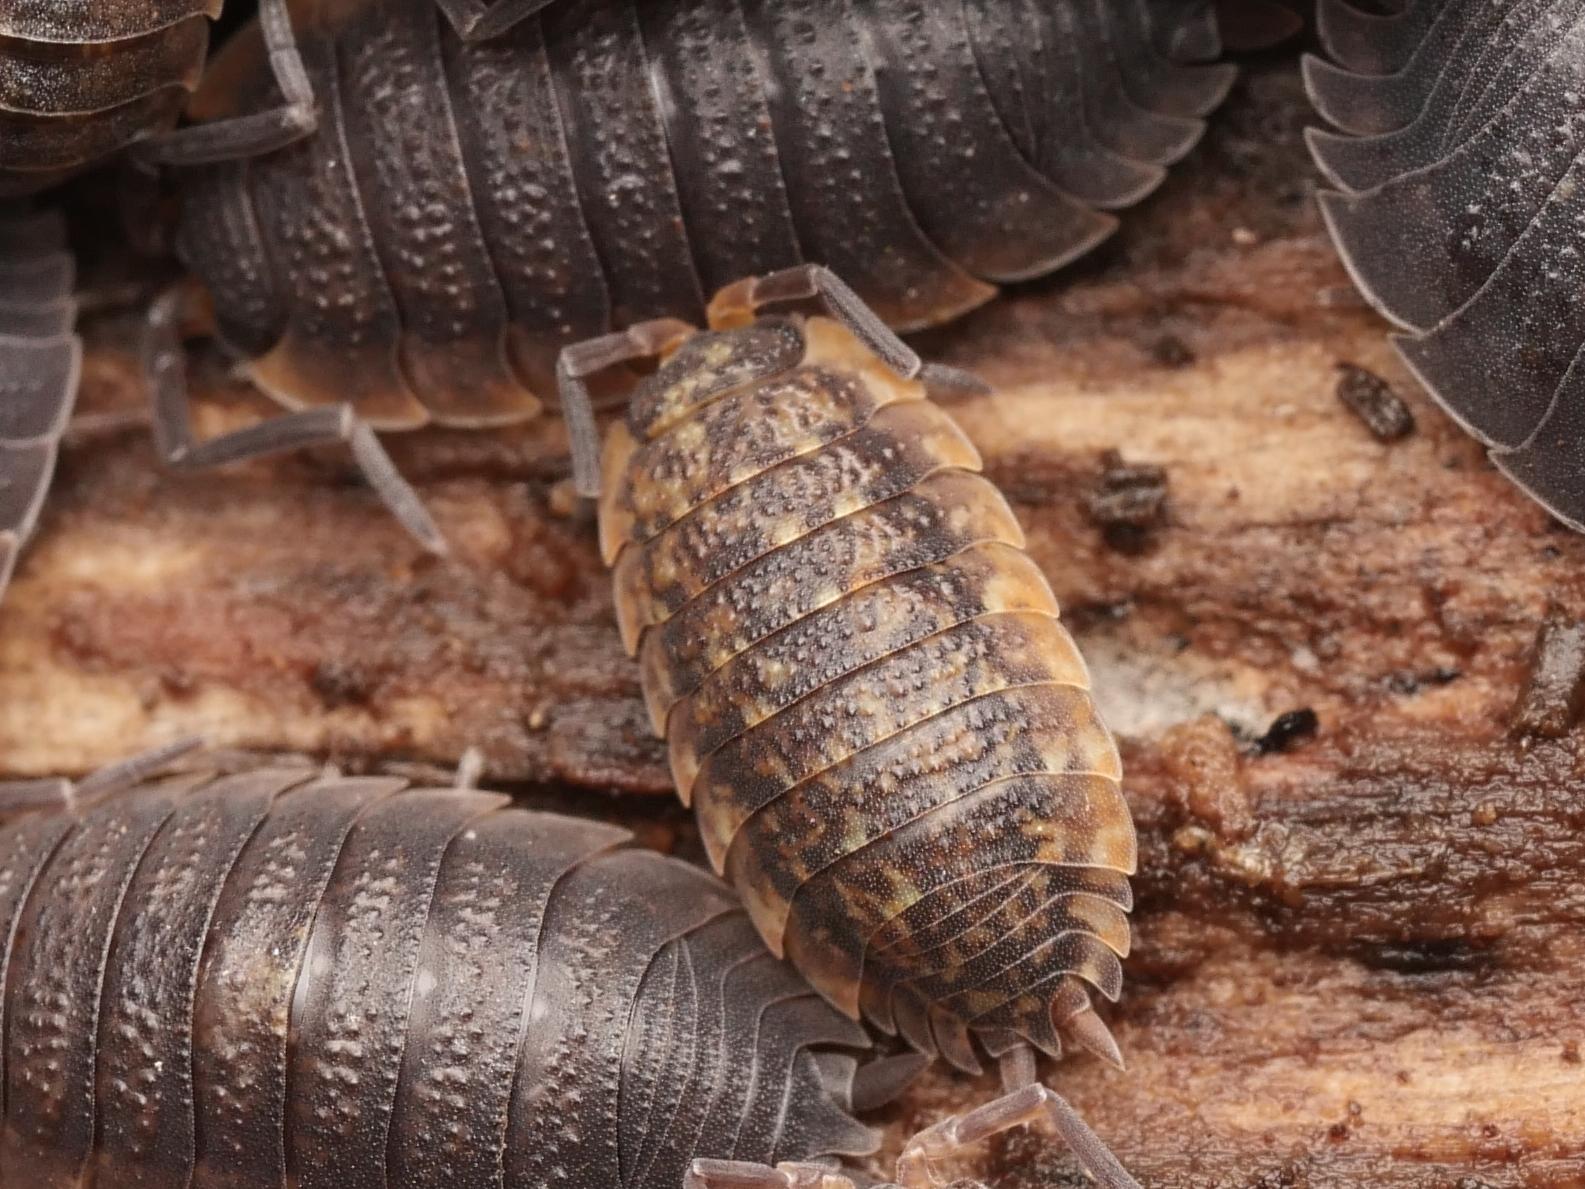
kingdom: Animalia
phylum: Arthropoda
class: Malacostraca
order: Isopoda
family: Porcellionidae
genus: Porcellio
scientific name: Porcellio scaber
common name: Common rough woodlouse
